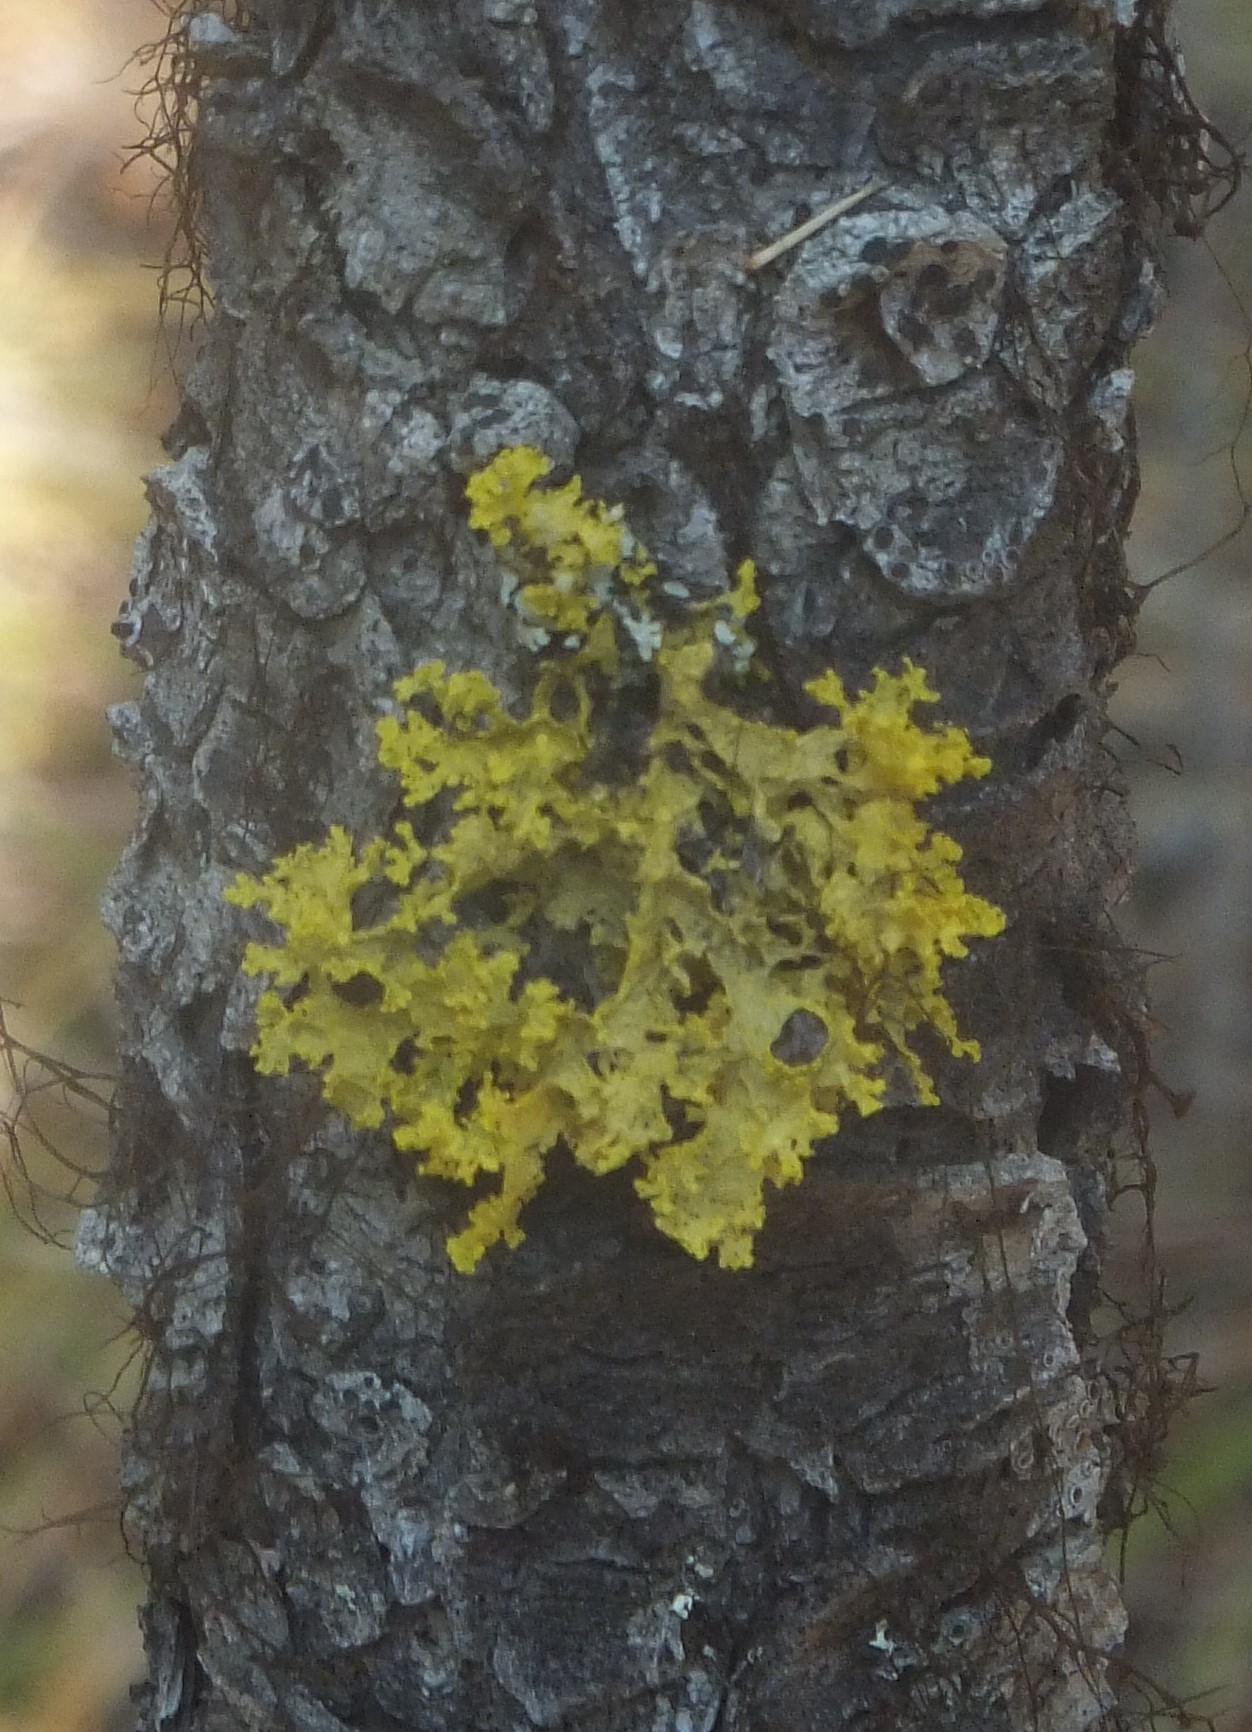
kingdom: Fungi
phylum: Ascomycota
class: Lecanoromycetes
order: Lecanorales
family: Parmeliaceae
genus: Vulpicida
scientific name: Vulpicida canadensis
